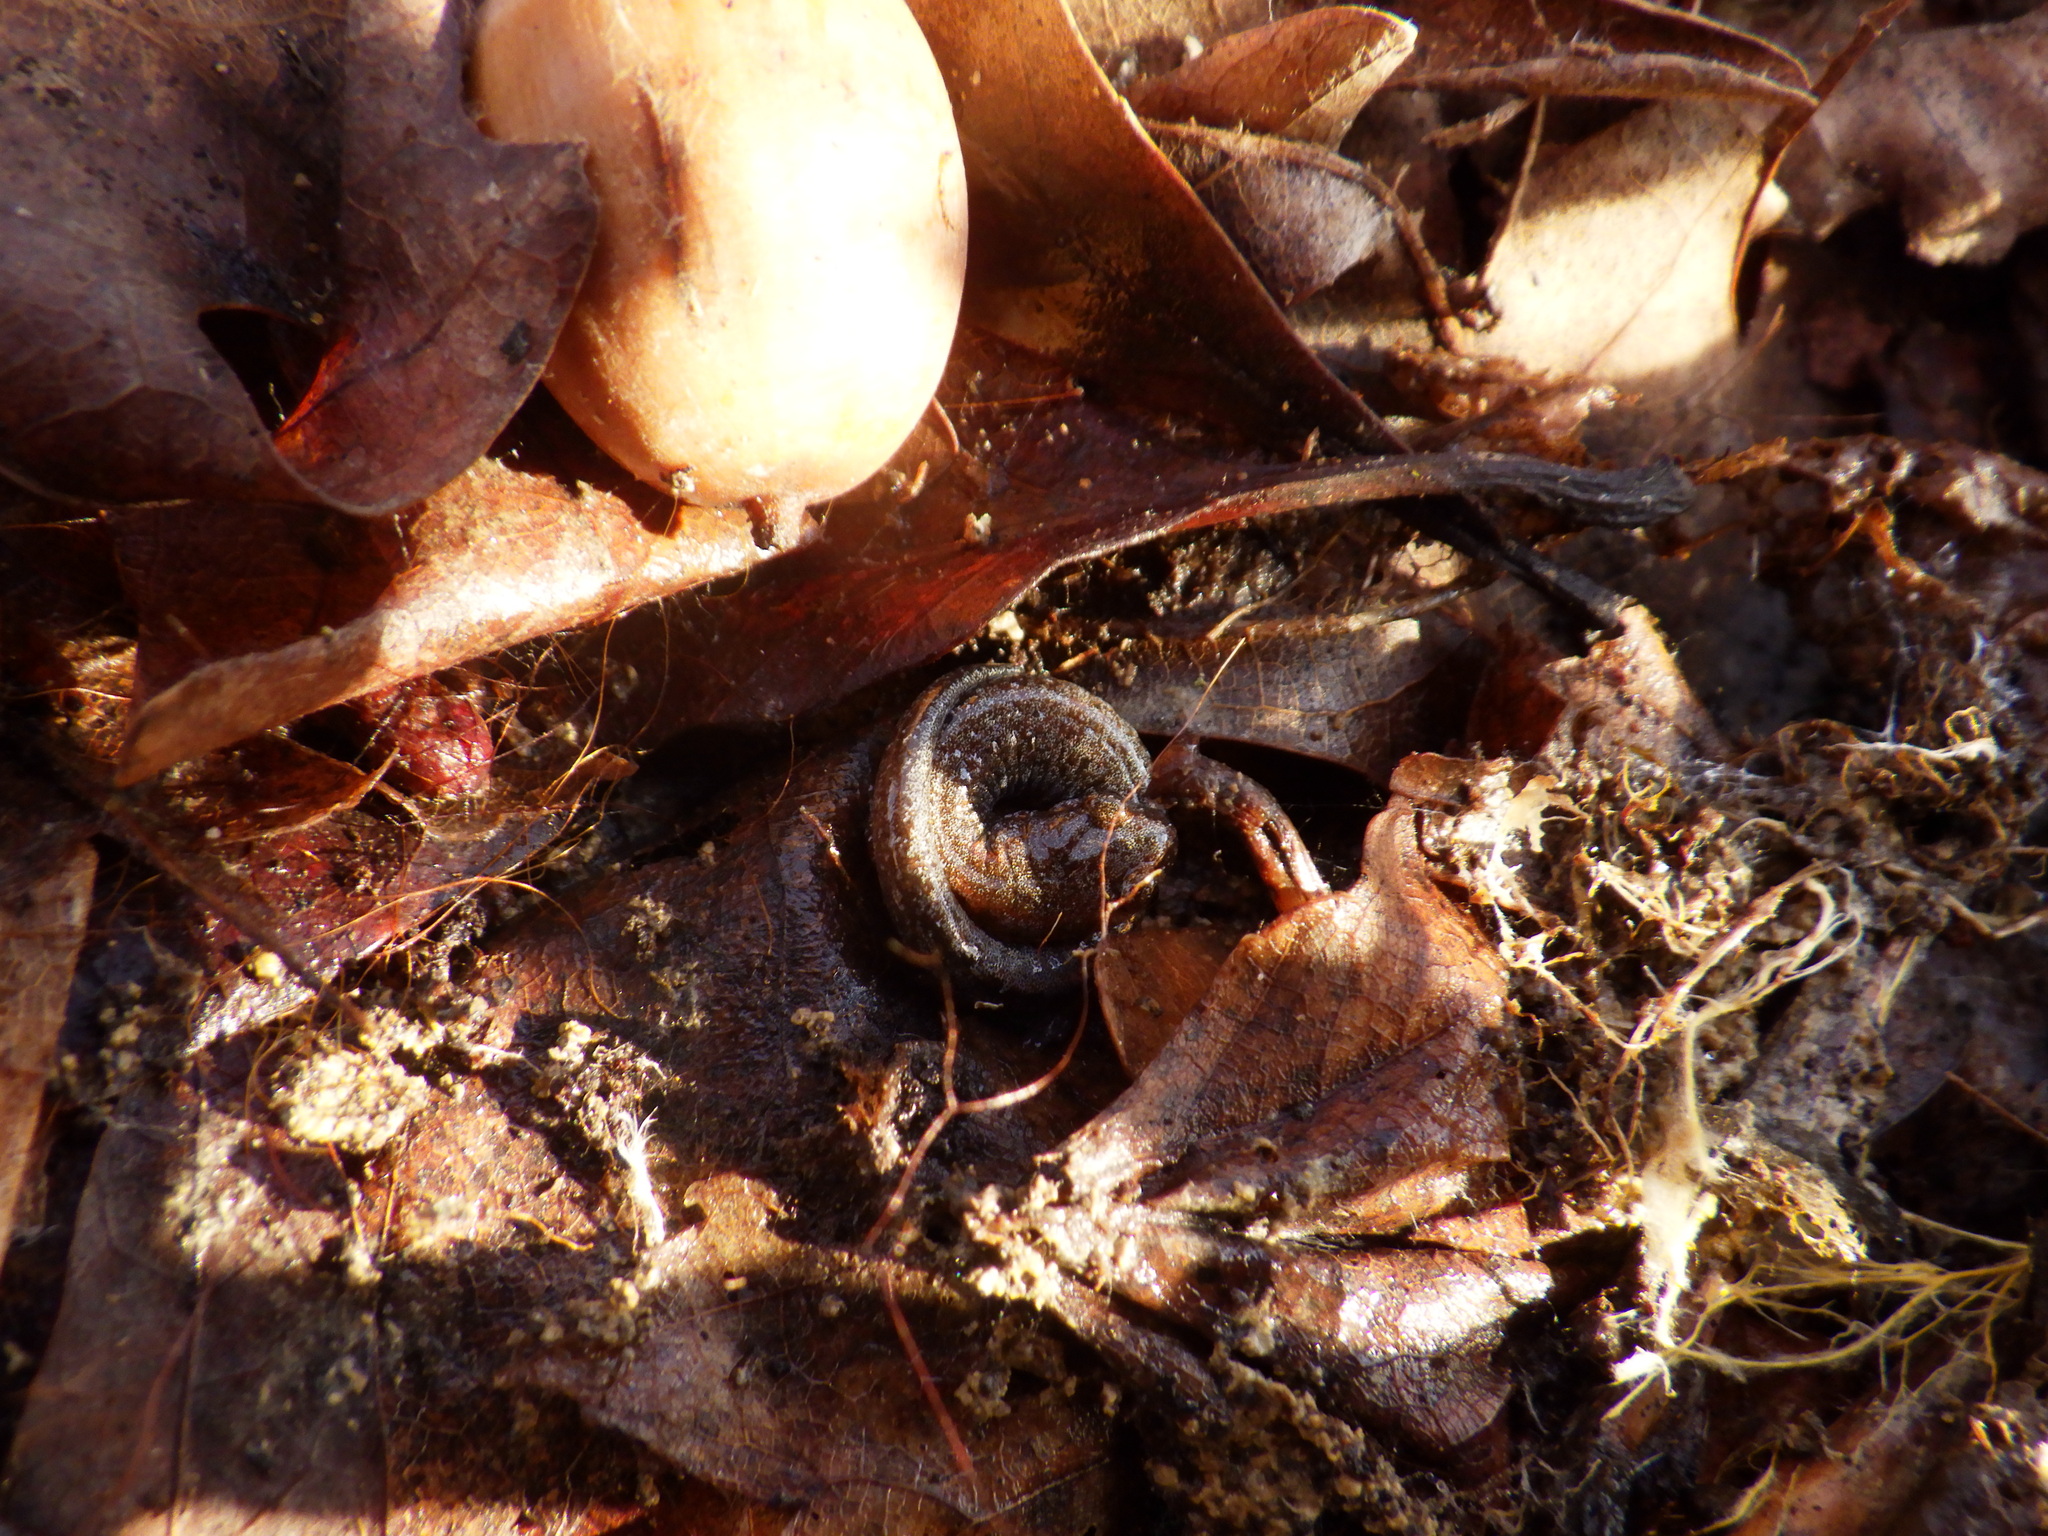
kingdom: Animalia
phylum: Chordata
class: Amphibia
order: Caudata
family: Plethodontidae
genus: Plethodon
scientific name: Plethodon dorsalis
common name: Northern zigzag salamander
